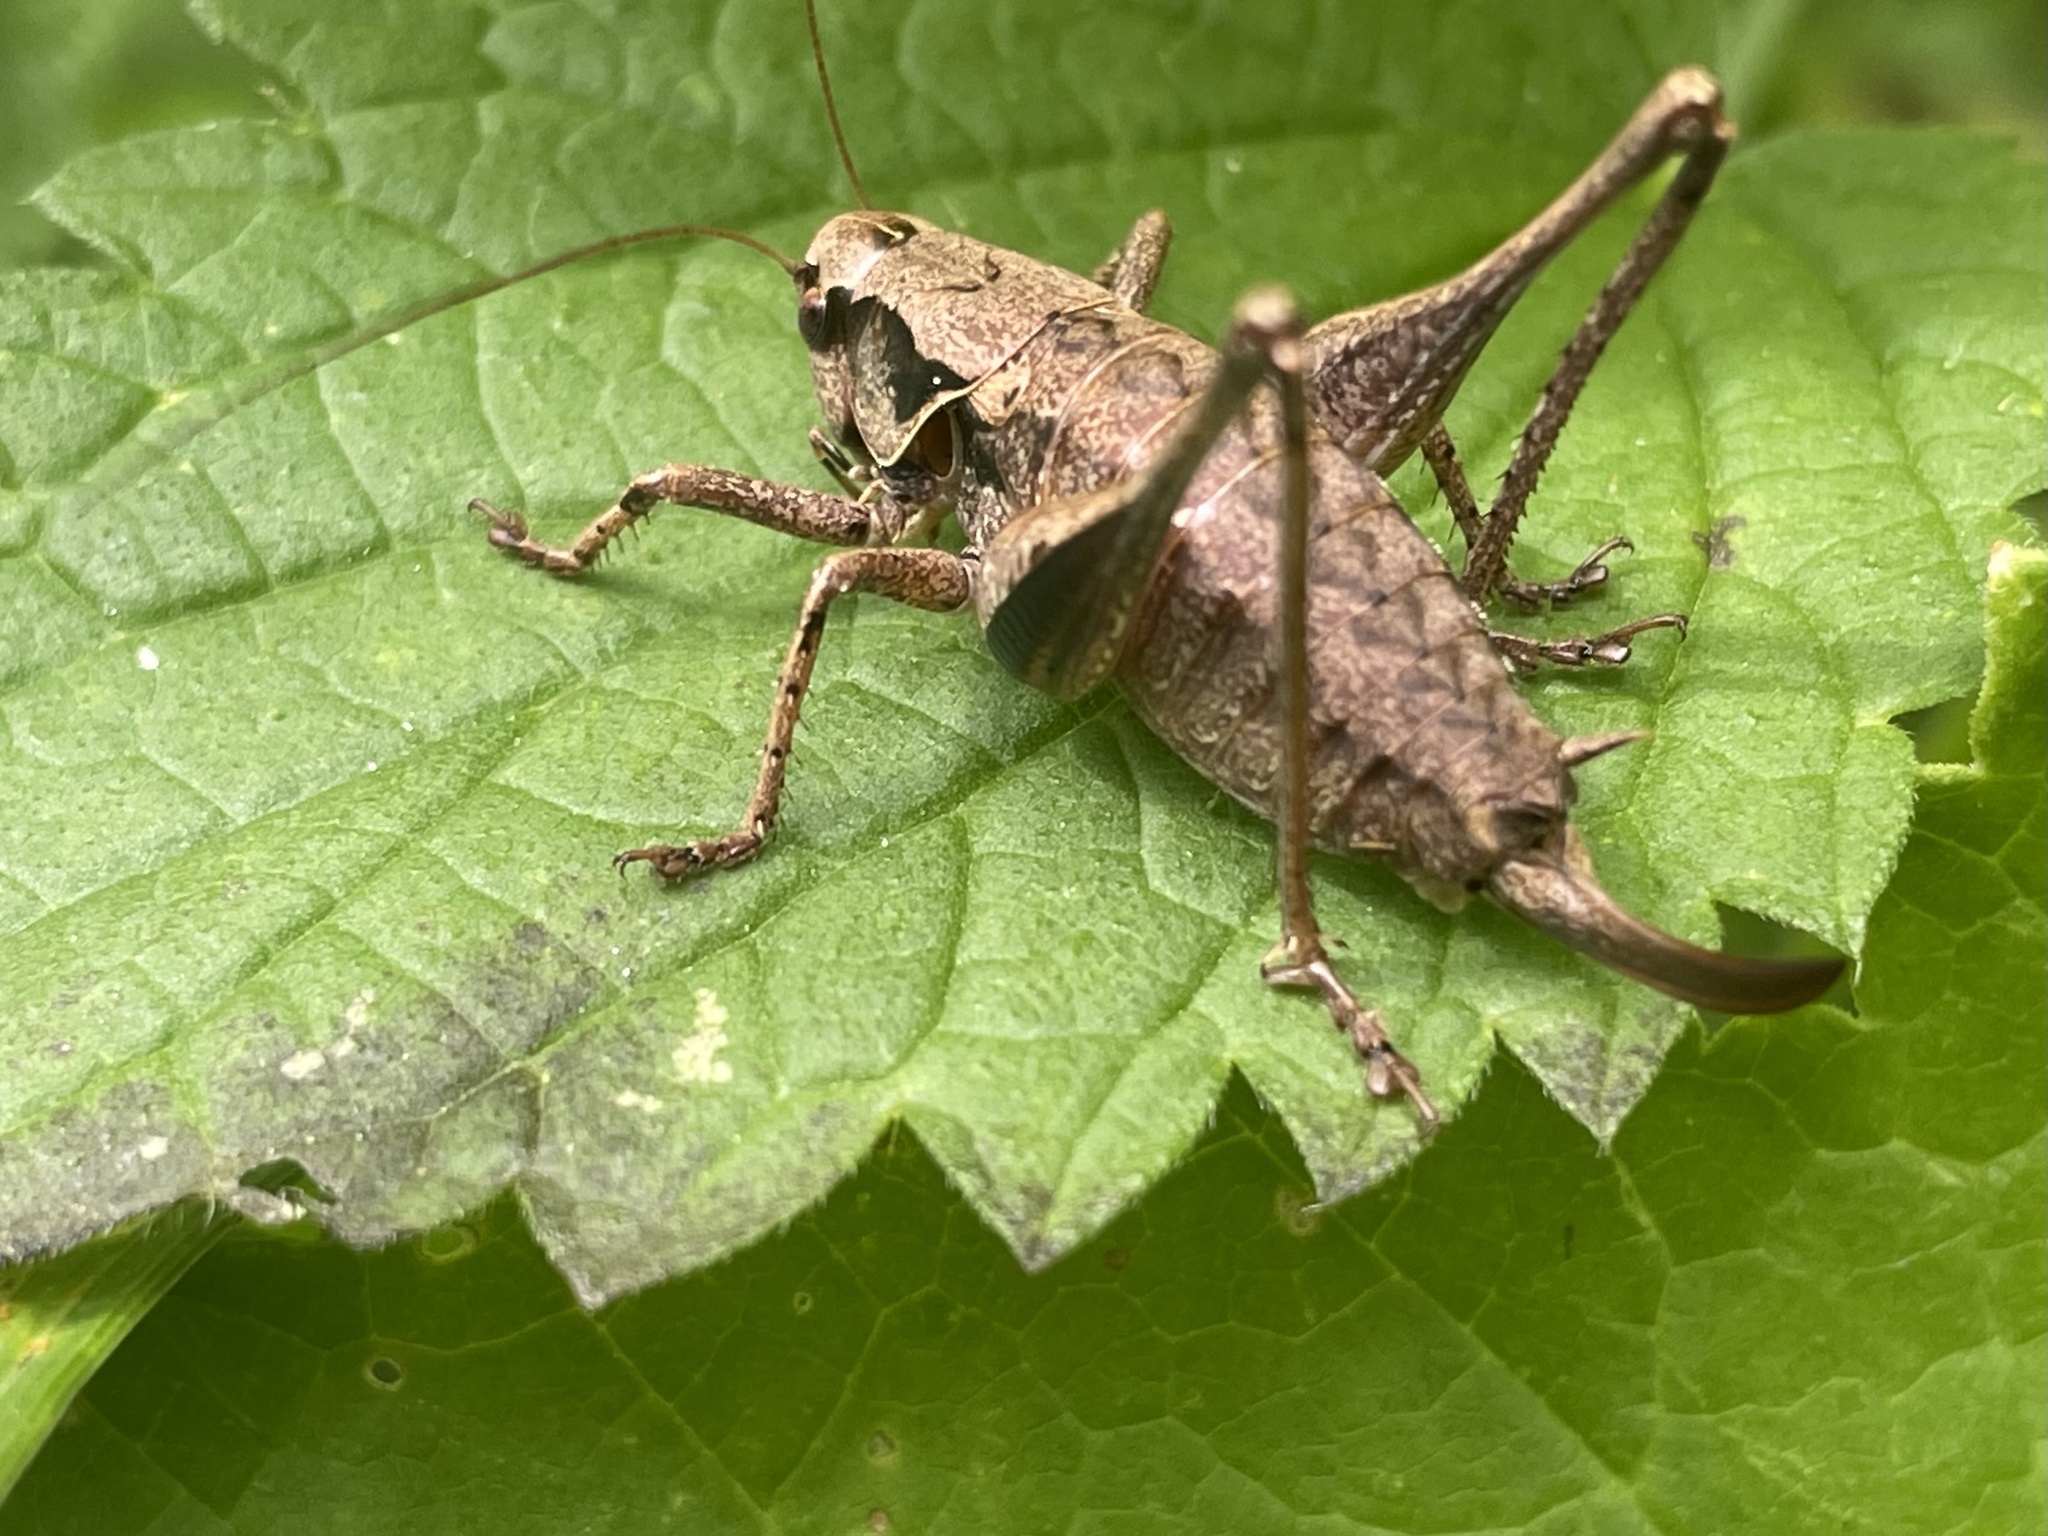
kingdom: Animalia
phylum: Arthropoda
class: Insecta
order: Orthoptera
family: Tettigoniidae
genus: Pholidoptera
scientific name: Pholidoptera griseoaptera
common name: Dark bush-cricket
